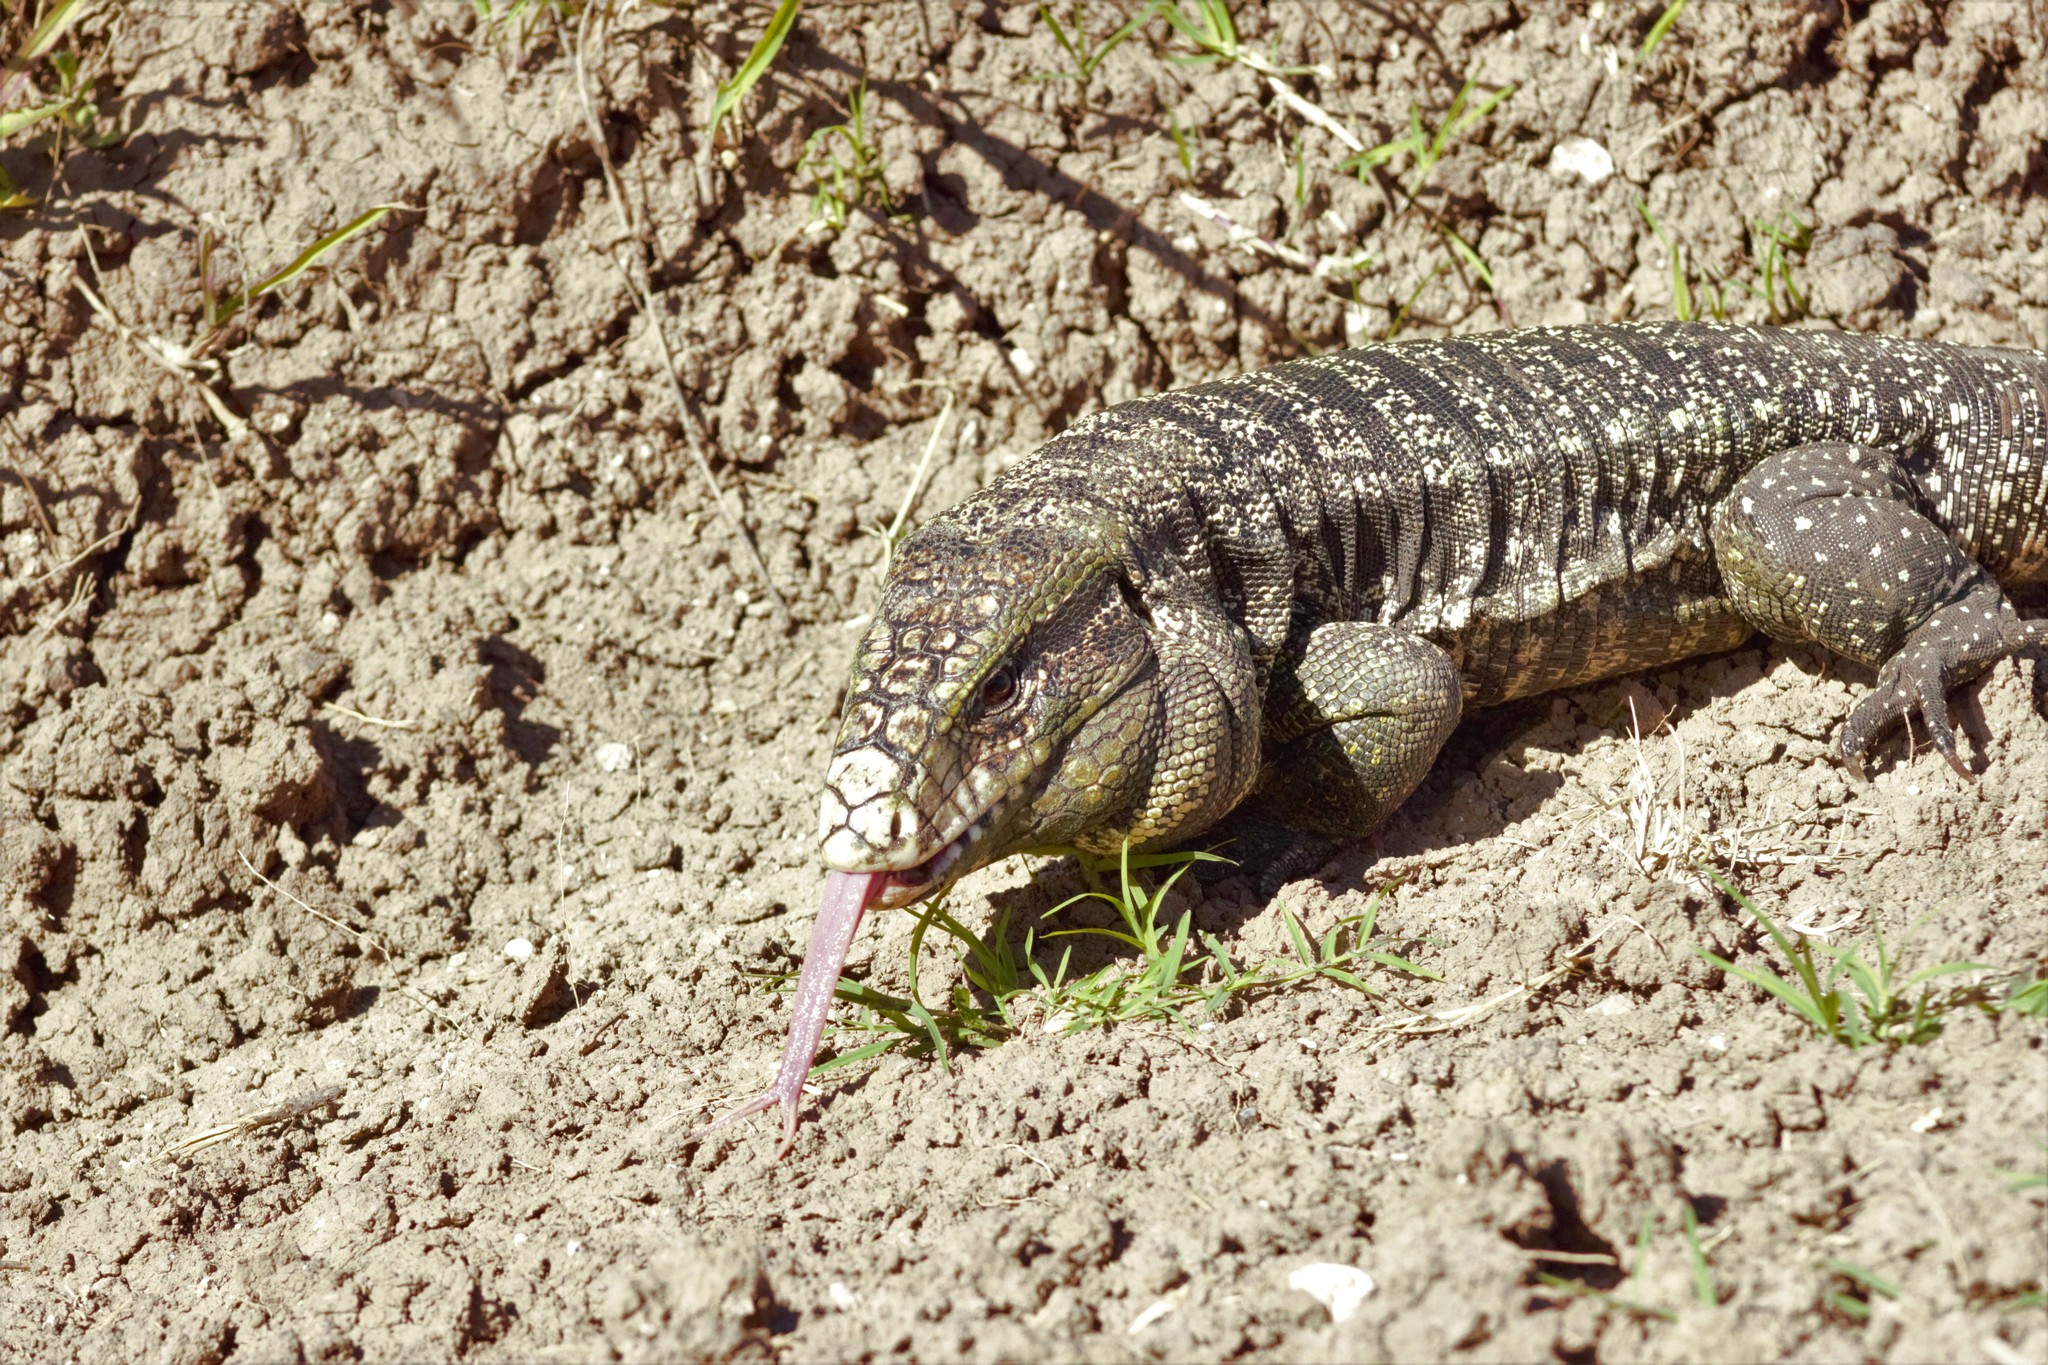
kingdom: Animalia
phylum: Chordata
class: Squamata
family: Teiidae
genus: Salvator
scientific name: Salvator merianae
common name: Argentine black and white tegu
